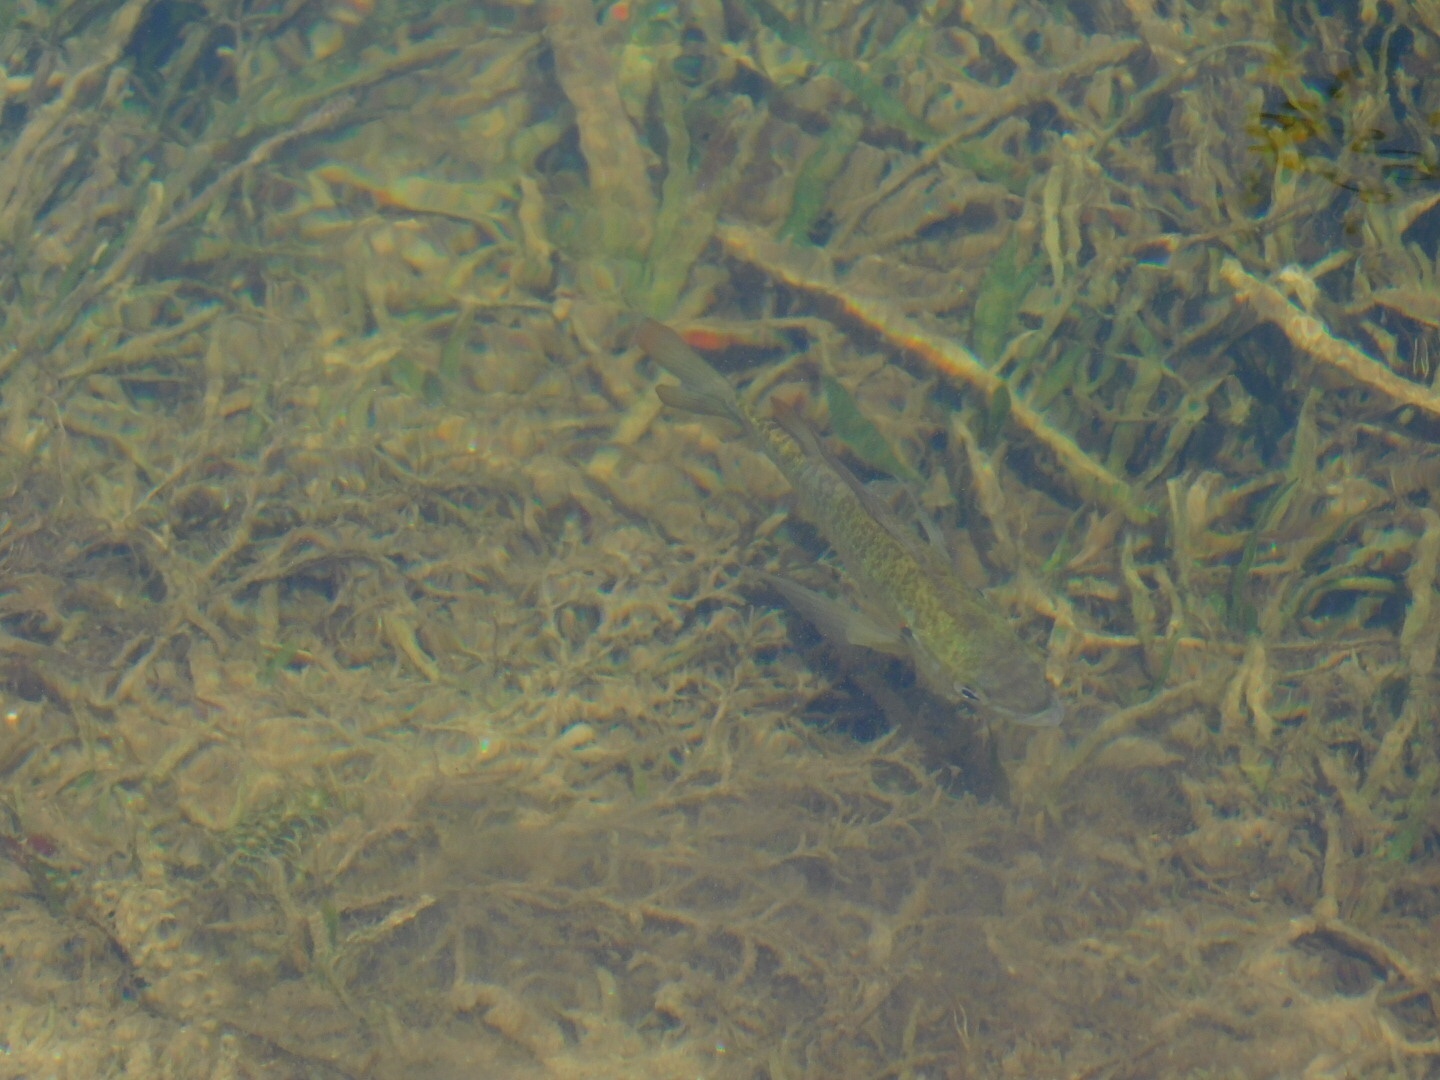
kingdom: Animalia
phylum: Chordata
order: Perciformes
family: Centrarchidae
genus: Lepomis
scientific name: Lepomis microlophus
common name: Redear sunfish
